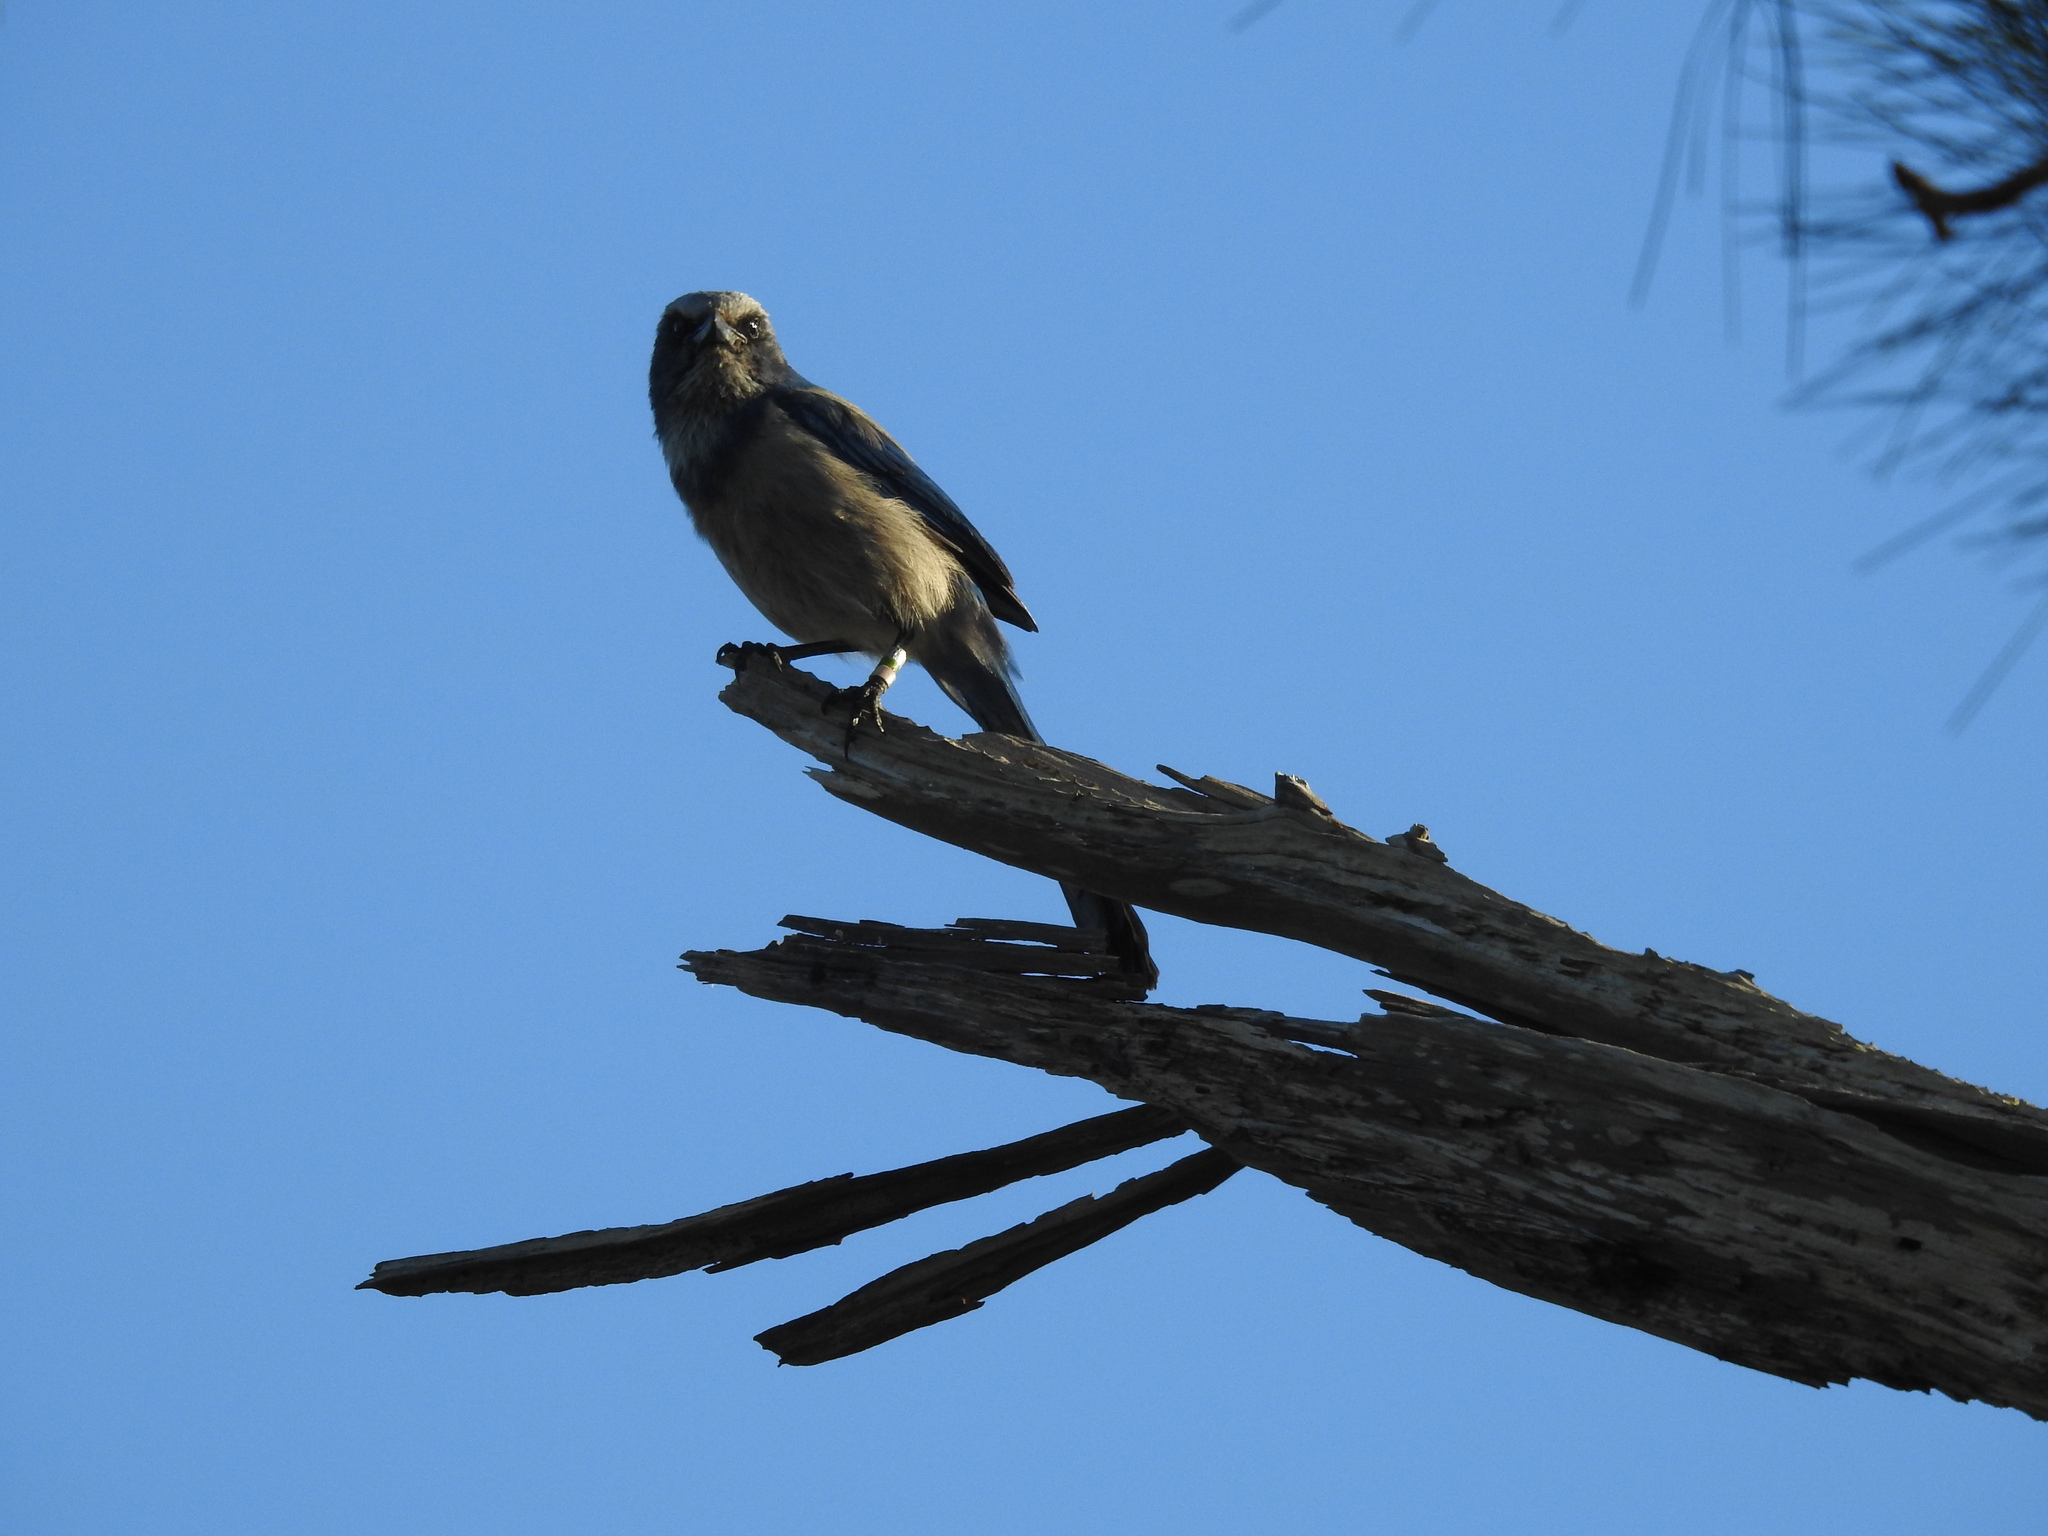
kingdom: Animalia
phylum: Chordata
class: Aves
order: Passeriformes
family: Corvidae
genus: Aphelocoma
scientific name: Aphelocoma coerulescens
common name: Florida scrub jay
